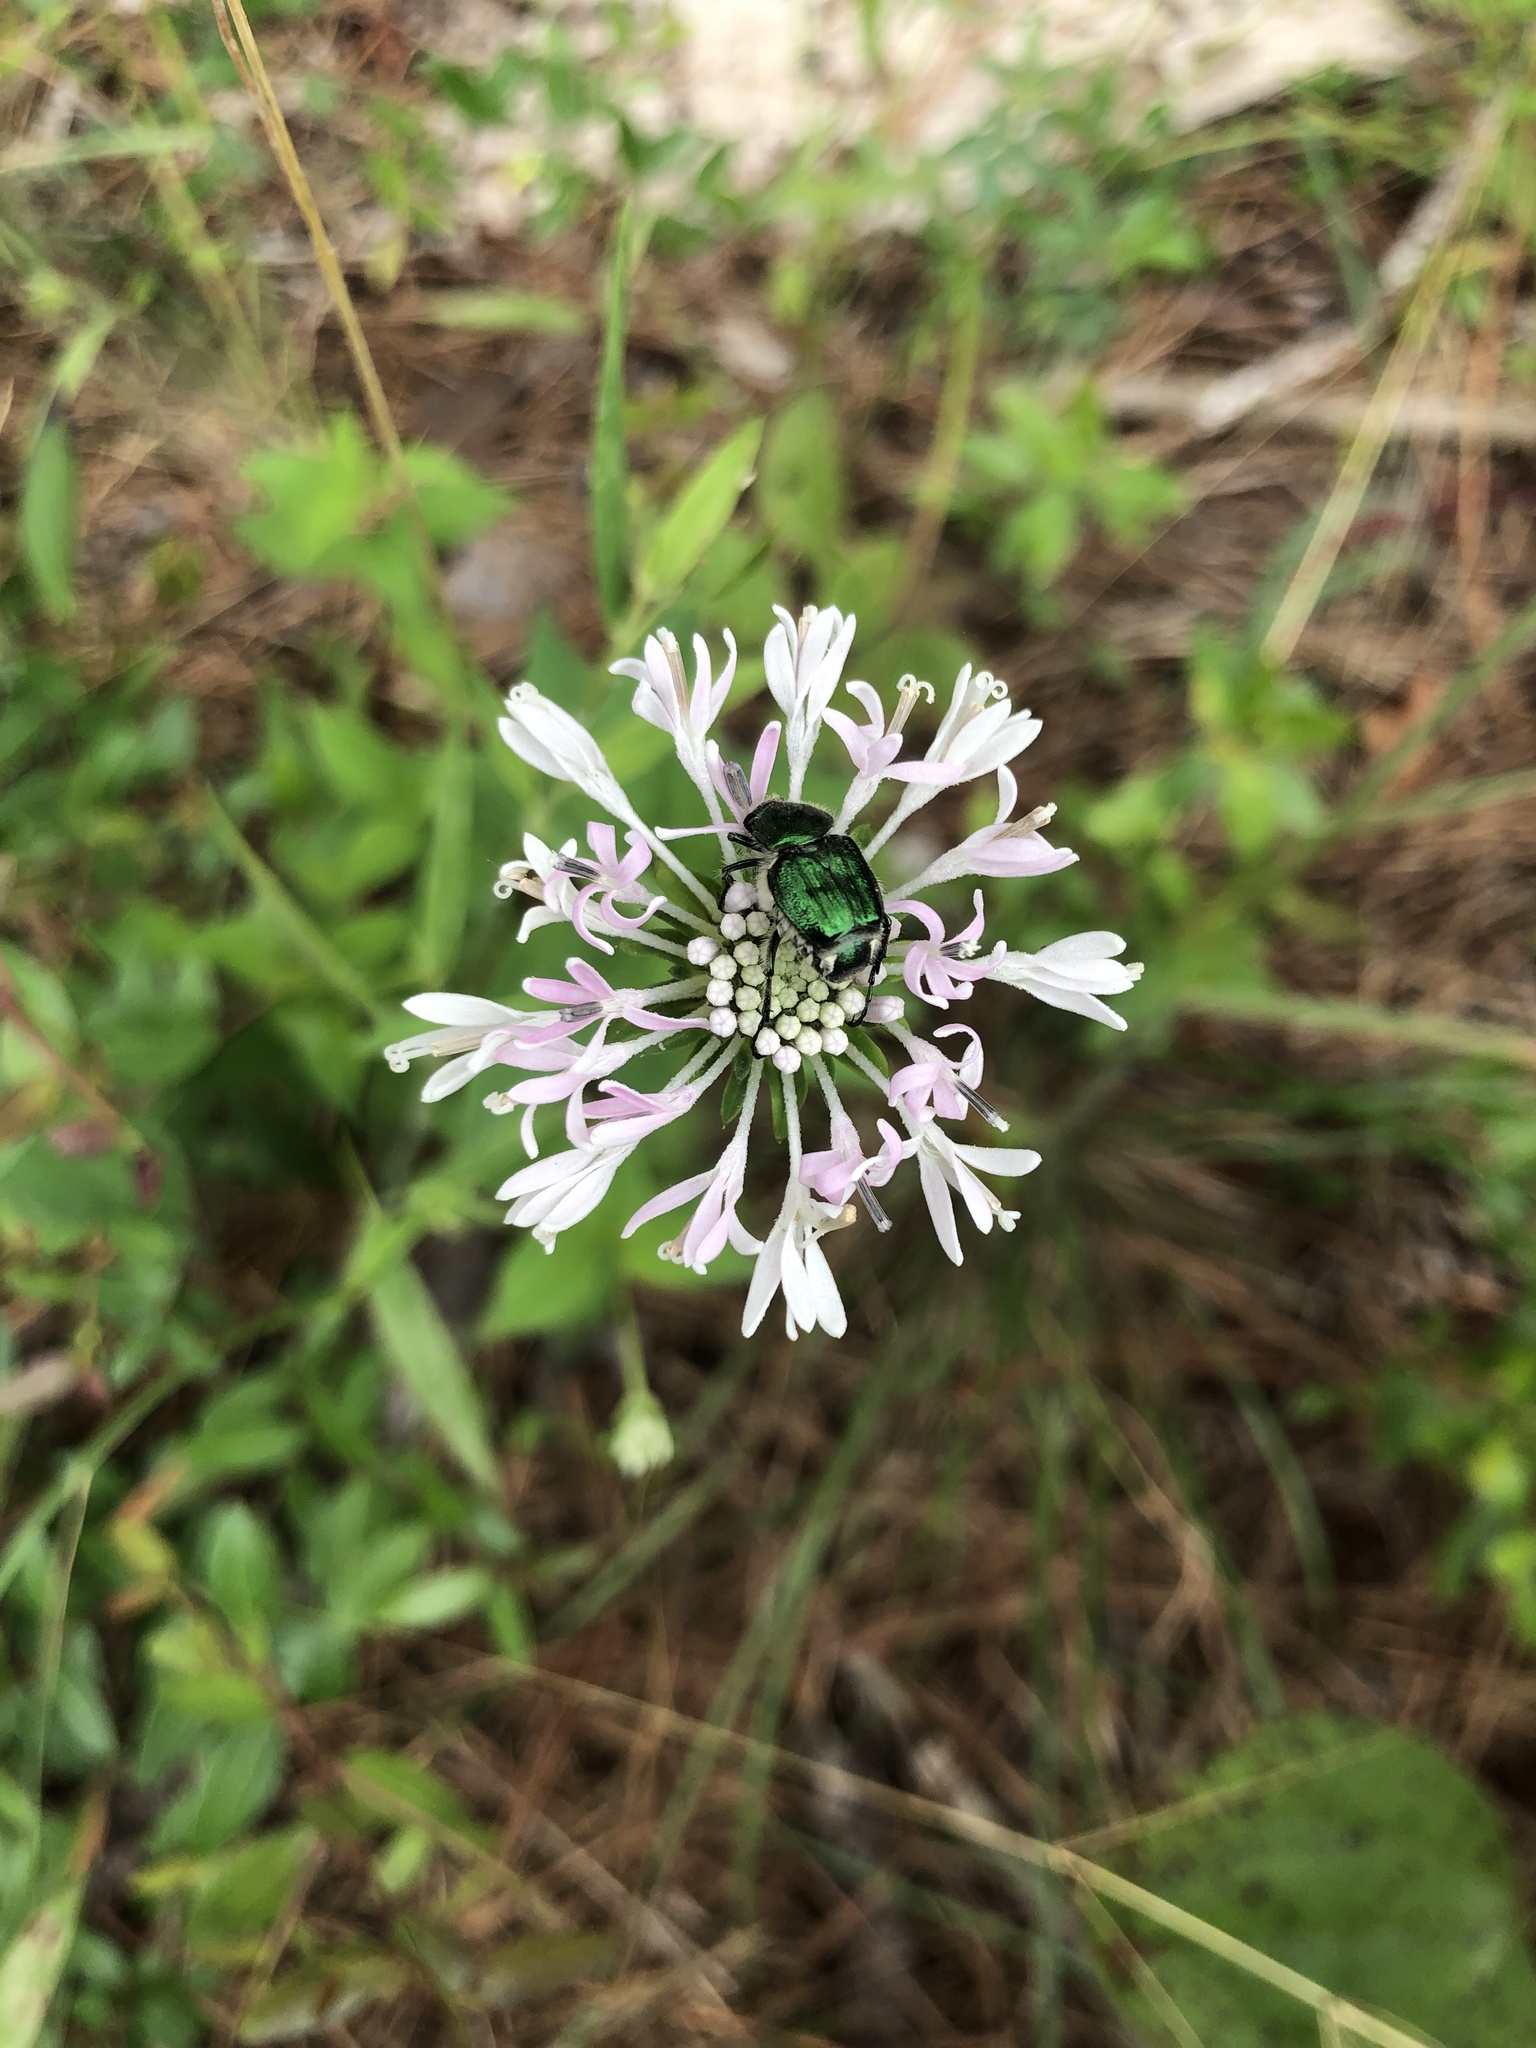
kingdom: Plantae
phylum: Tracheophyta
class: Magnoliopsida
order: Asterales
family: Asteraceae
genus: Marshallia
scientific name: Marshallia trinervia
